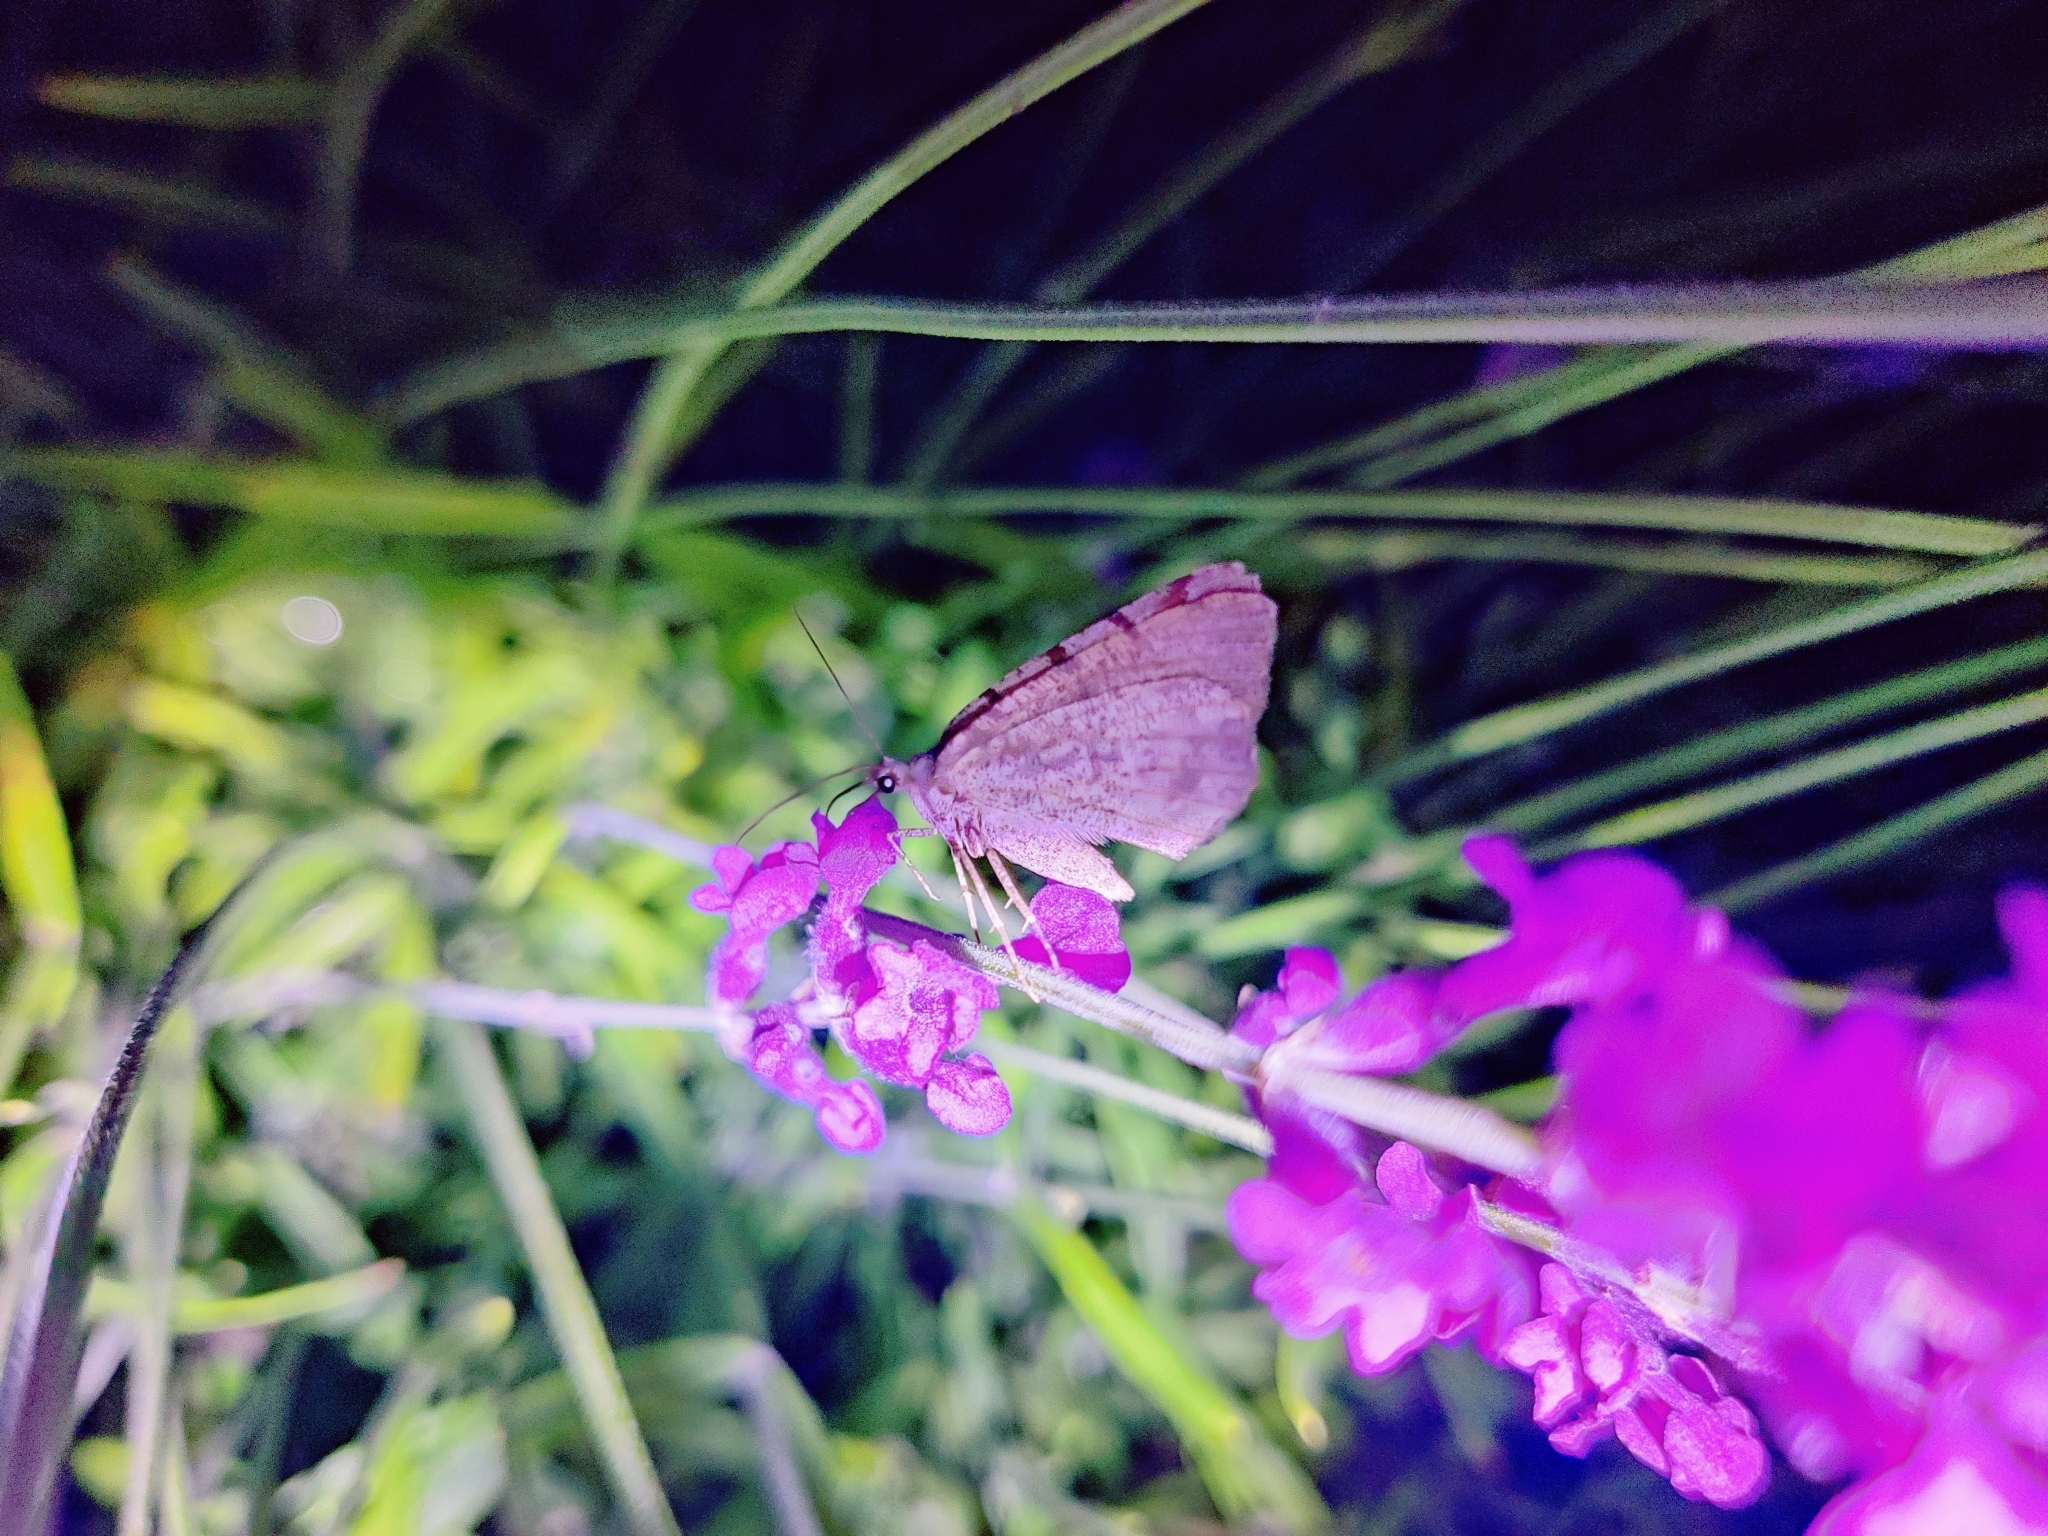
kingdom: Animalia
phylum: Arthropoda
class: Insecta
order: Lepidoptera
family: Geometridae
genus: Macaria
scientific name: Macaria wauaria
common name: V-moth
